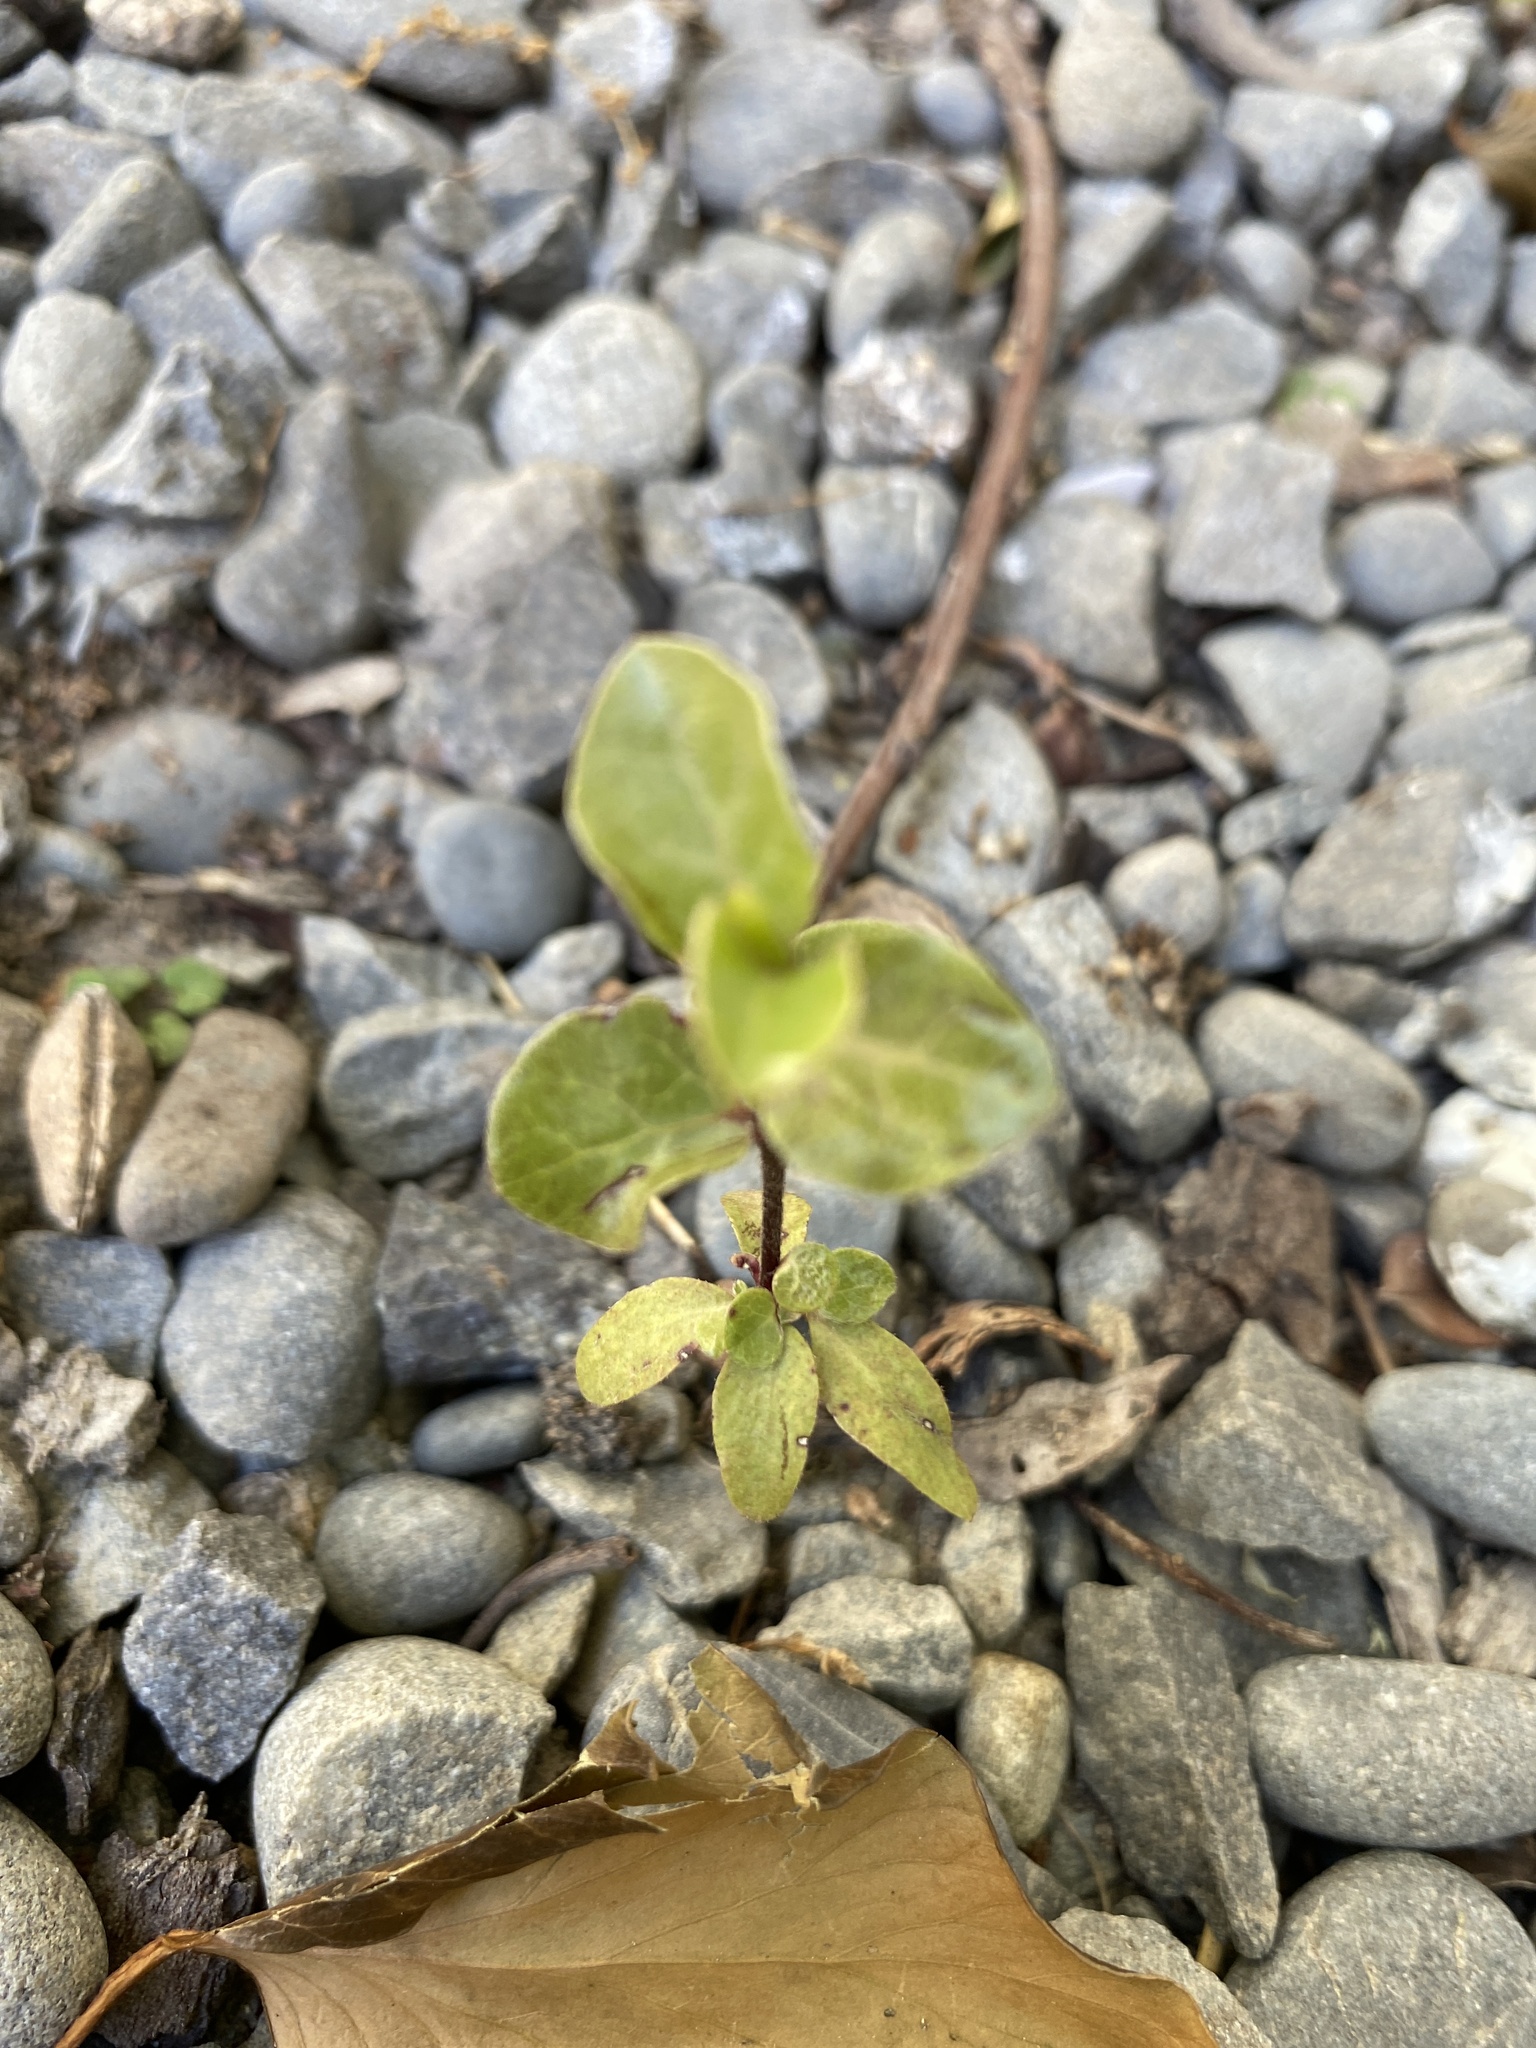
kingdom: Plantae
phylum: Tracheophyta
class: Magnoliopsida
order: Apiales
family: Pittosporaceae
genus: Pittosporum
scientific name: Pittosporum tenuifolium
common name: Kohuhu
